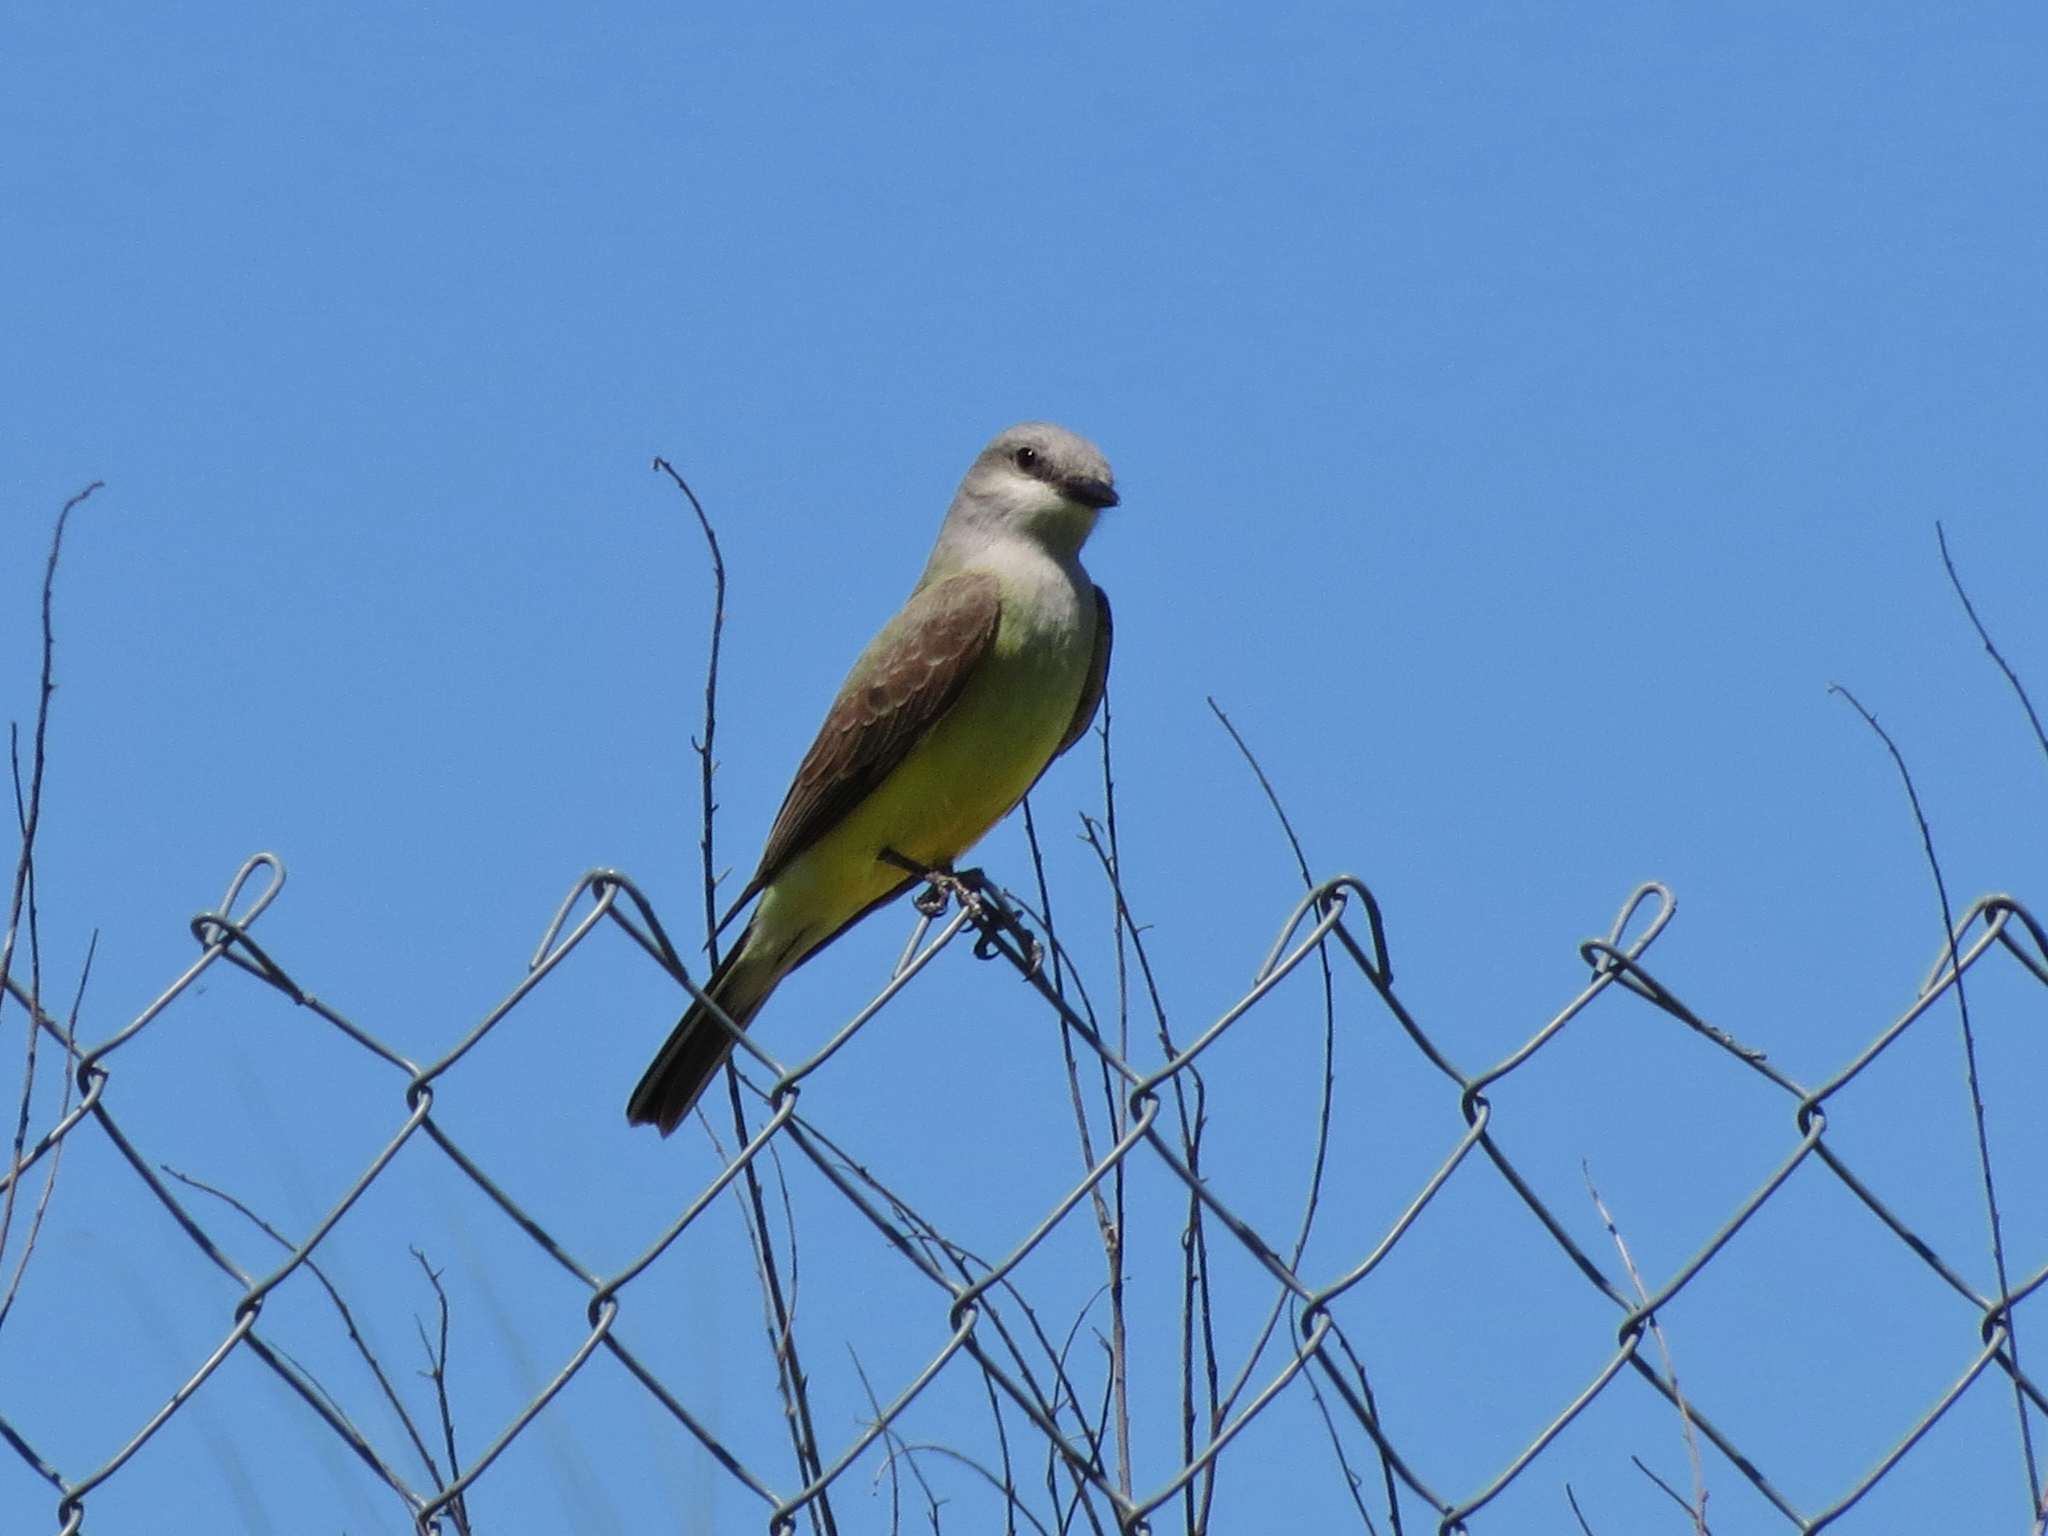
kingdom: Animalia
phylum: Chordata
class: Aves
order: Passeriformes
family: Tyrannidae
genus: Tyrannus
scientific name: Tyrannus verticalis
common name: Western kingbird
